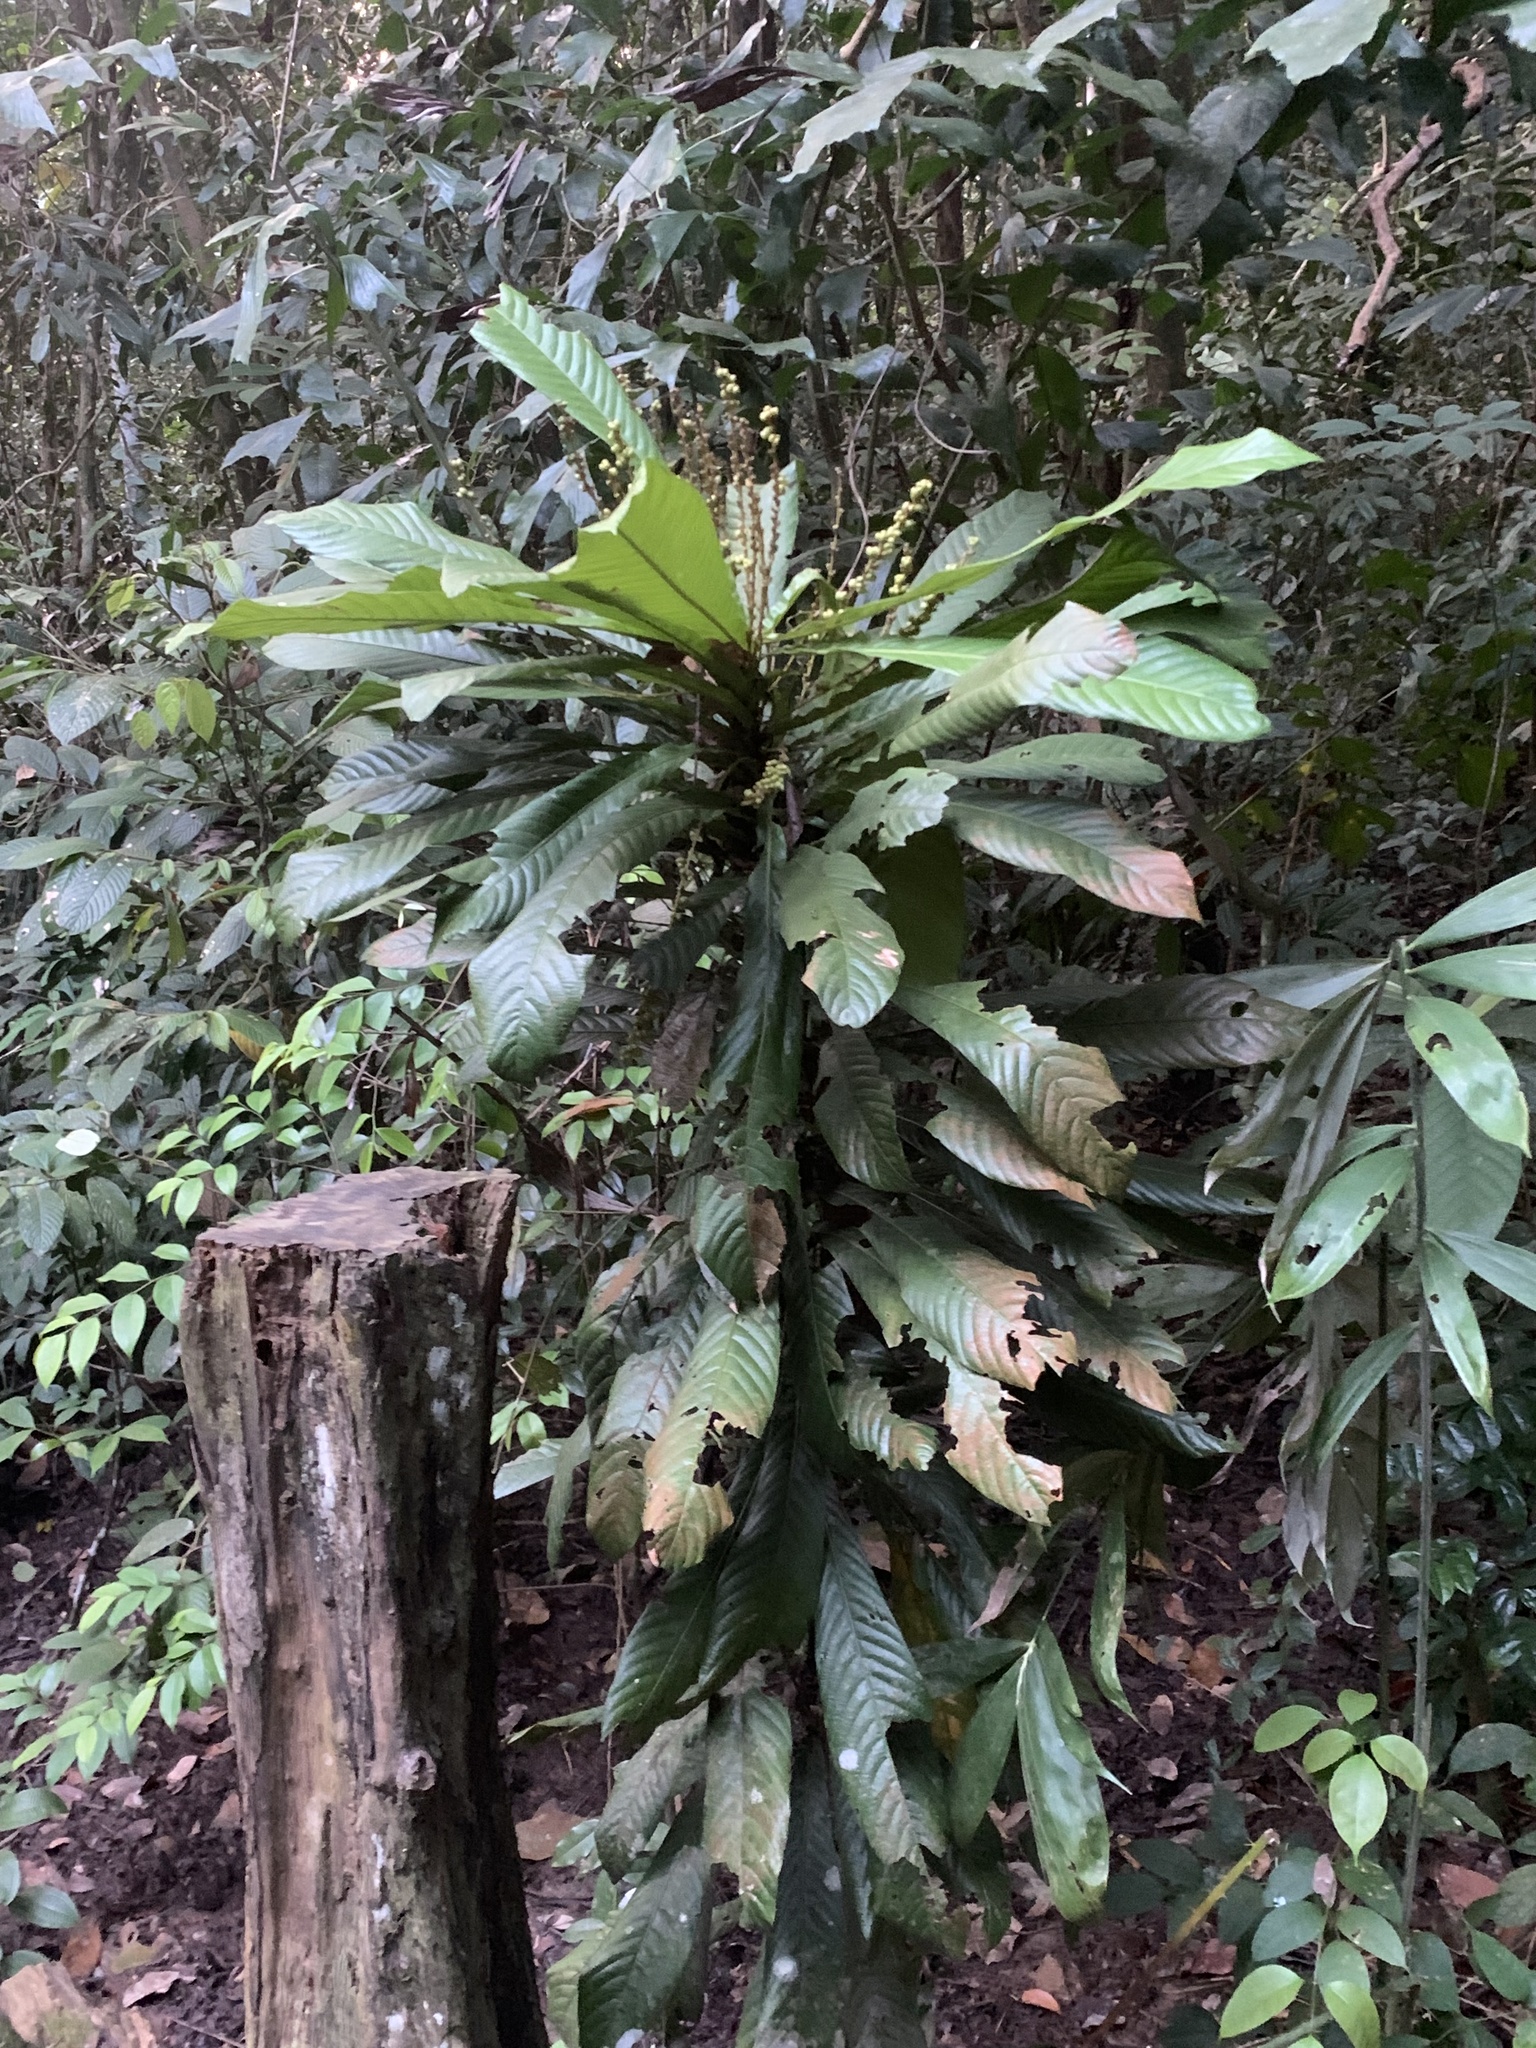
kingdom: Plantae
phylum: Tracheophyta
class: Magnoliopsida
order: Malpighiales
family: Euphorbiaceae
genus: Agrostistachys
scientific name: Agrostistachys sessilifolia
